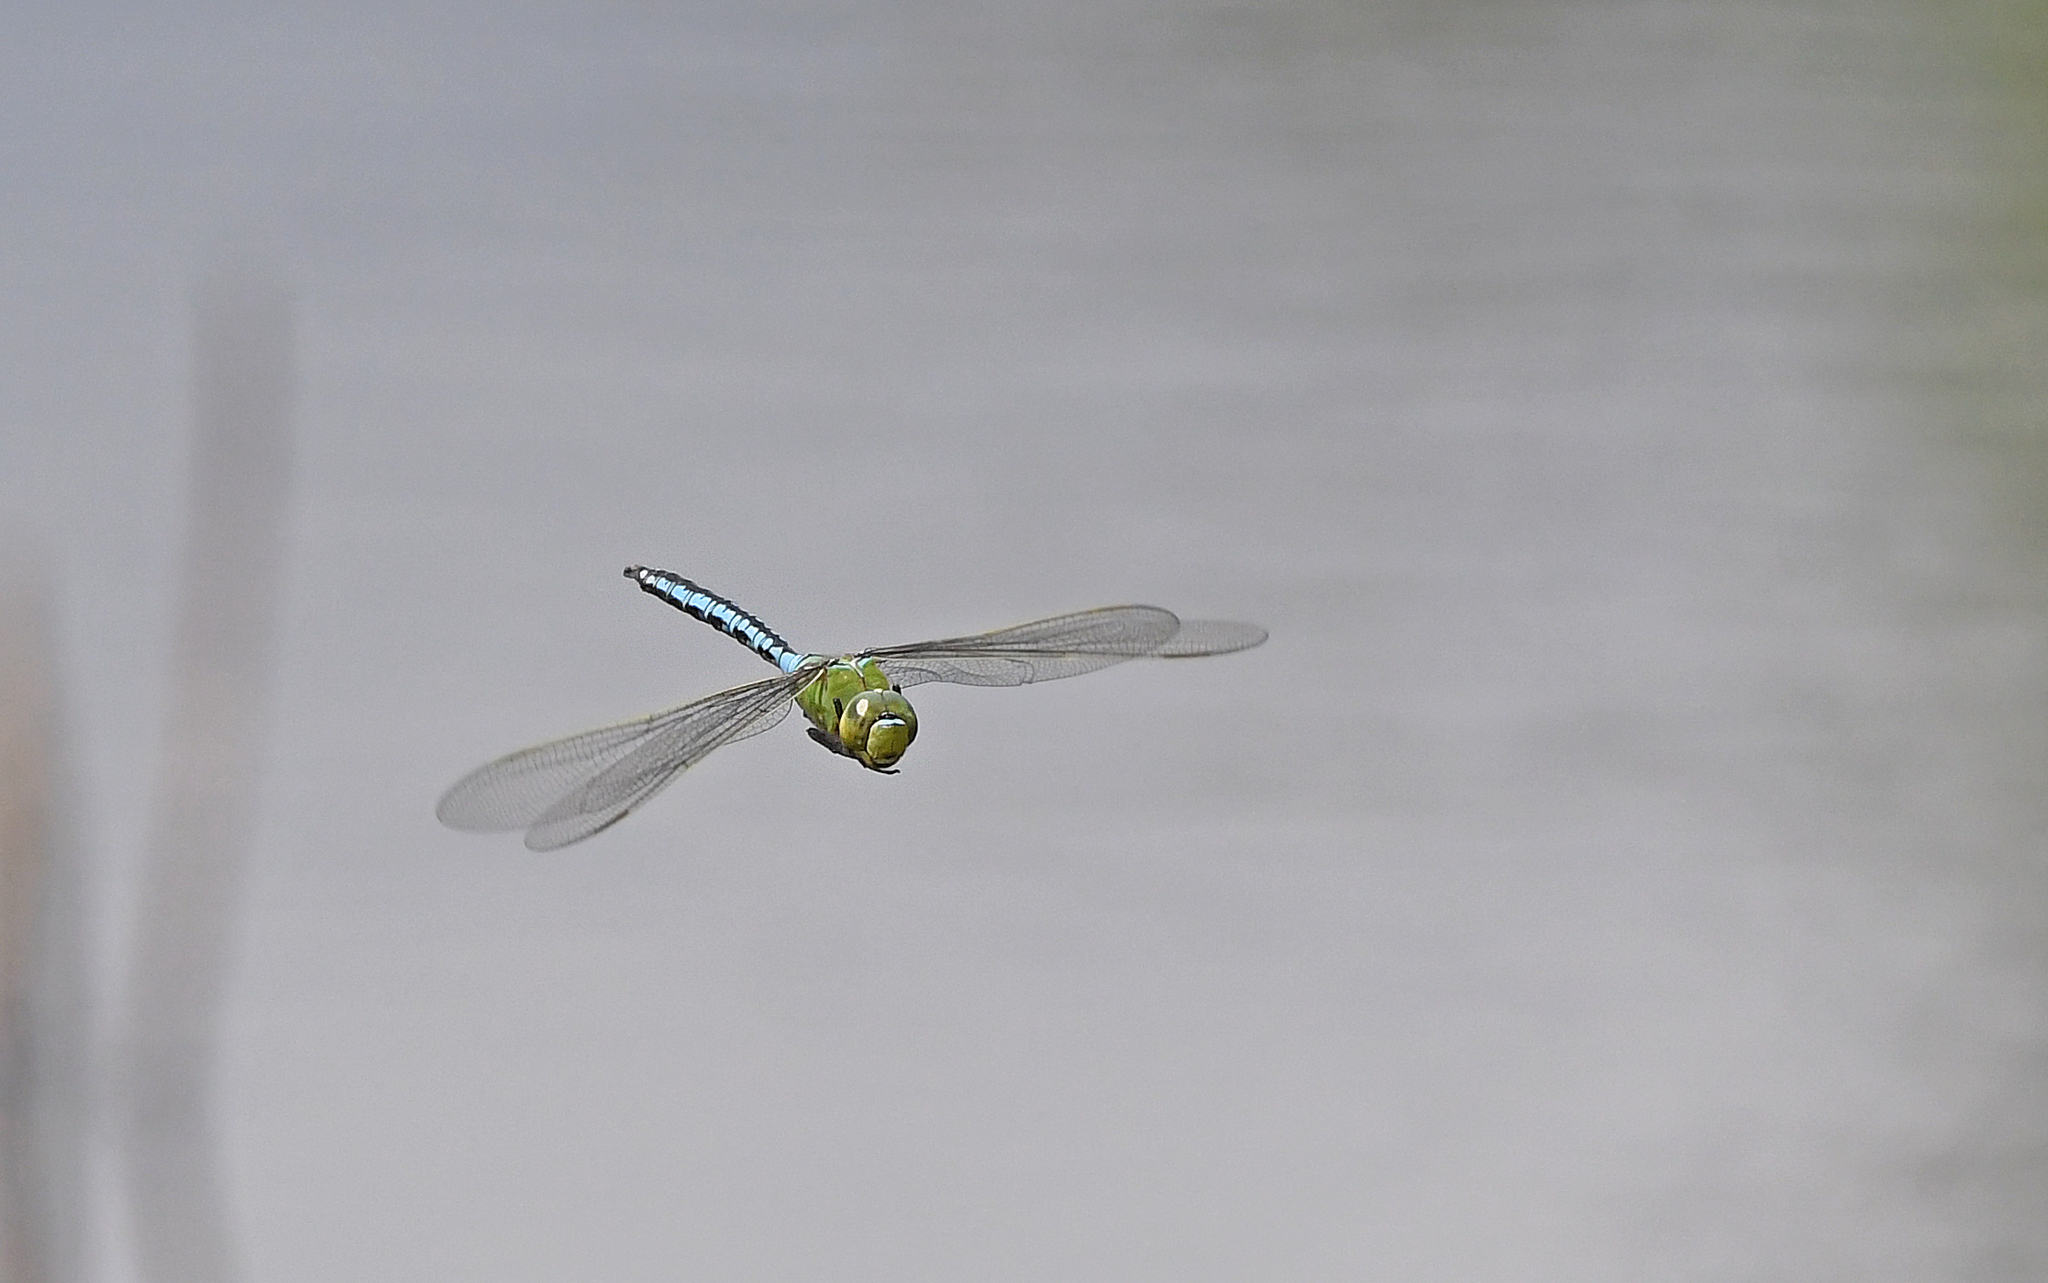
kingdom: Animalia
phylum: Arthropoda
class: Insecta
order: Odonata
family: Aeshnidae
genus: Anax
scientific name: Anax imperator
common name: Emperor dragonfly
